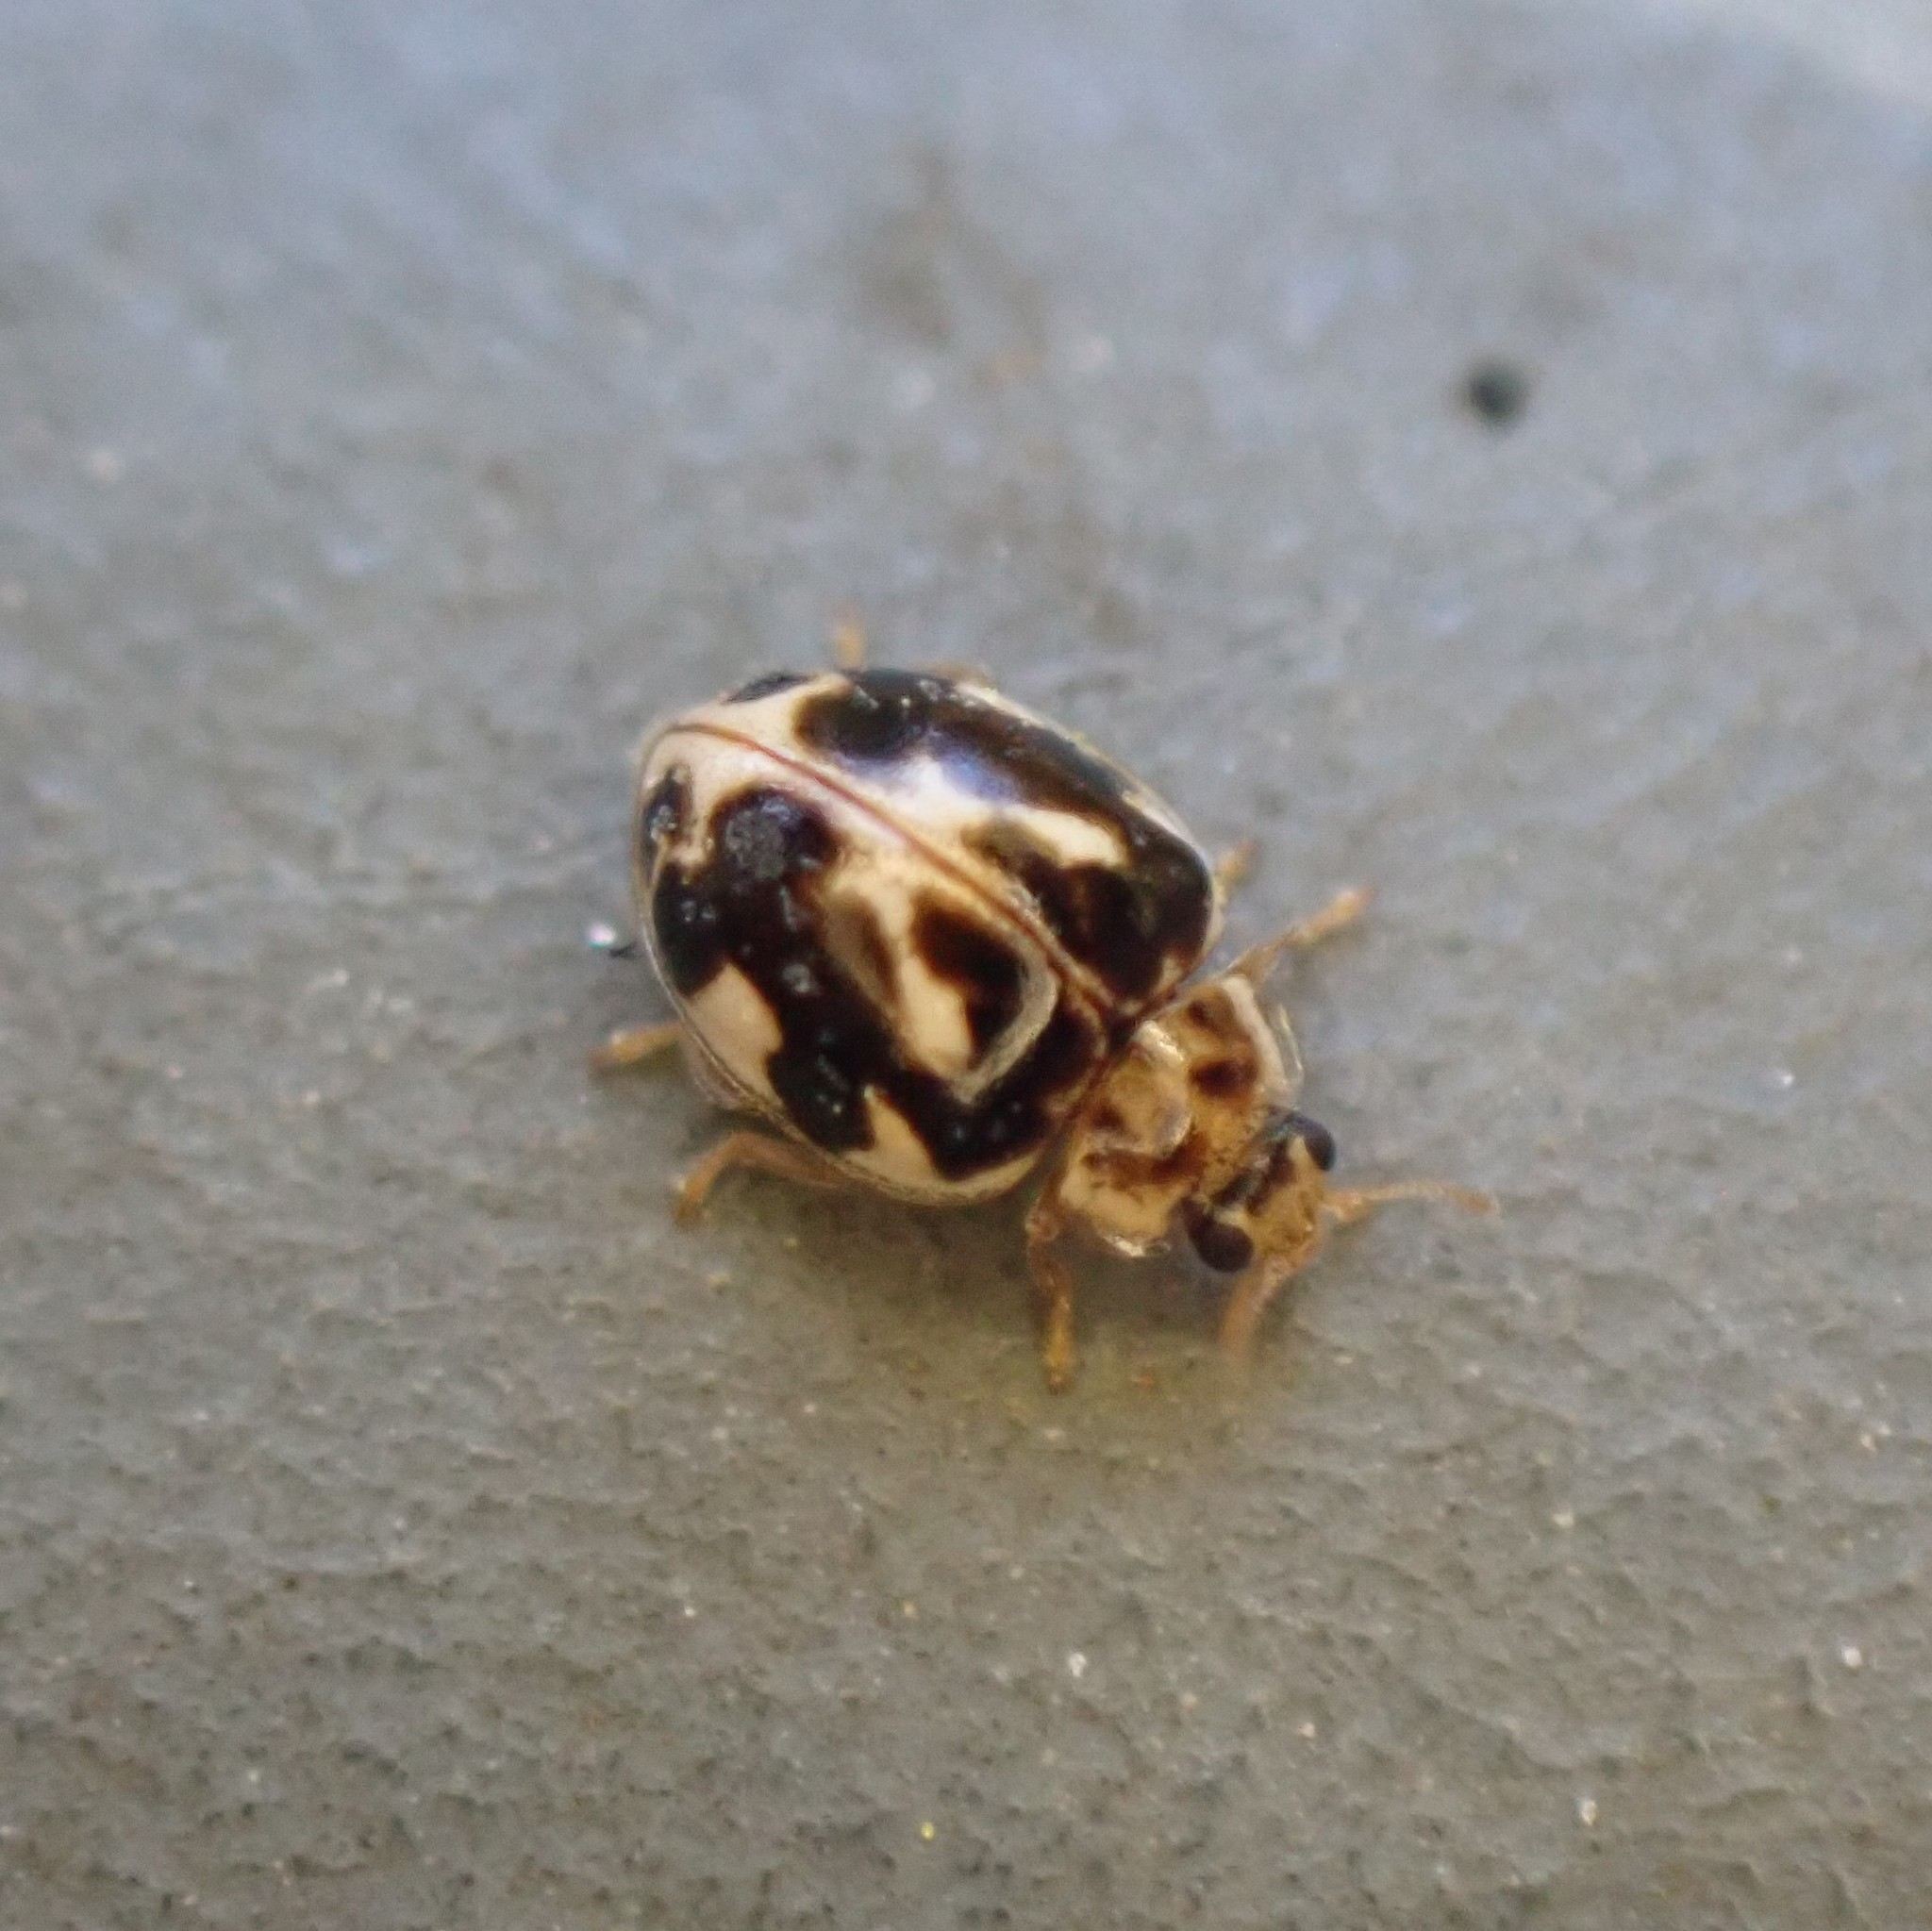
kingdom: Animalia
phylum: Arthropoda
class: Insecta
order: Coleoptera
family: Coccinellidae
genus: Psyllobora
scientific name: Psyllobora vigintimaculata
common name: Ladybird beetle
